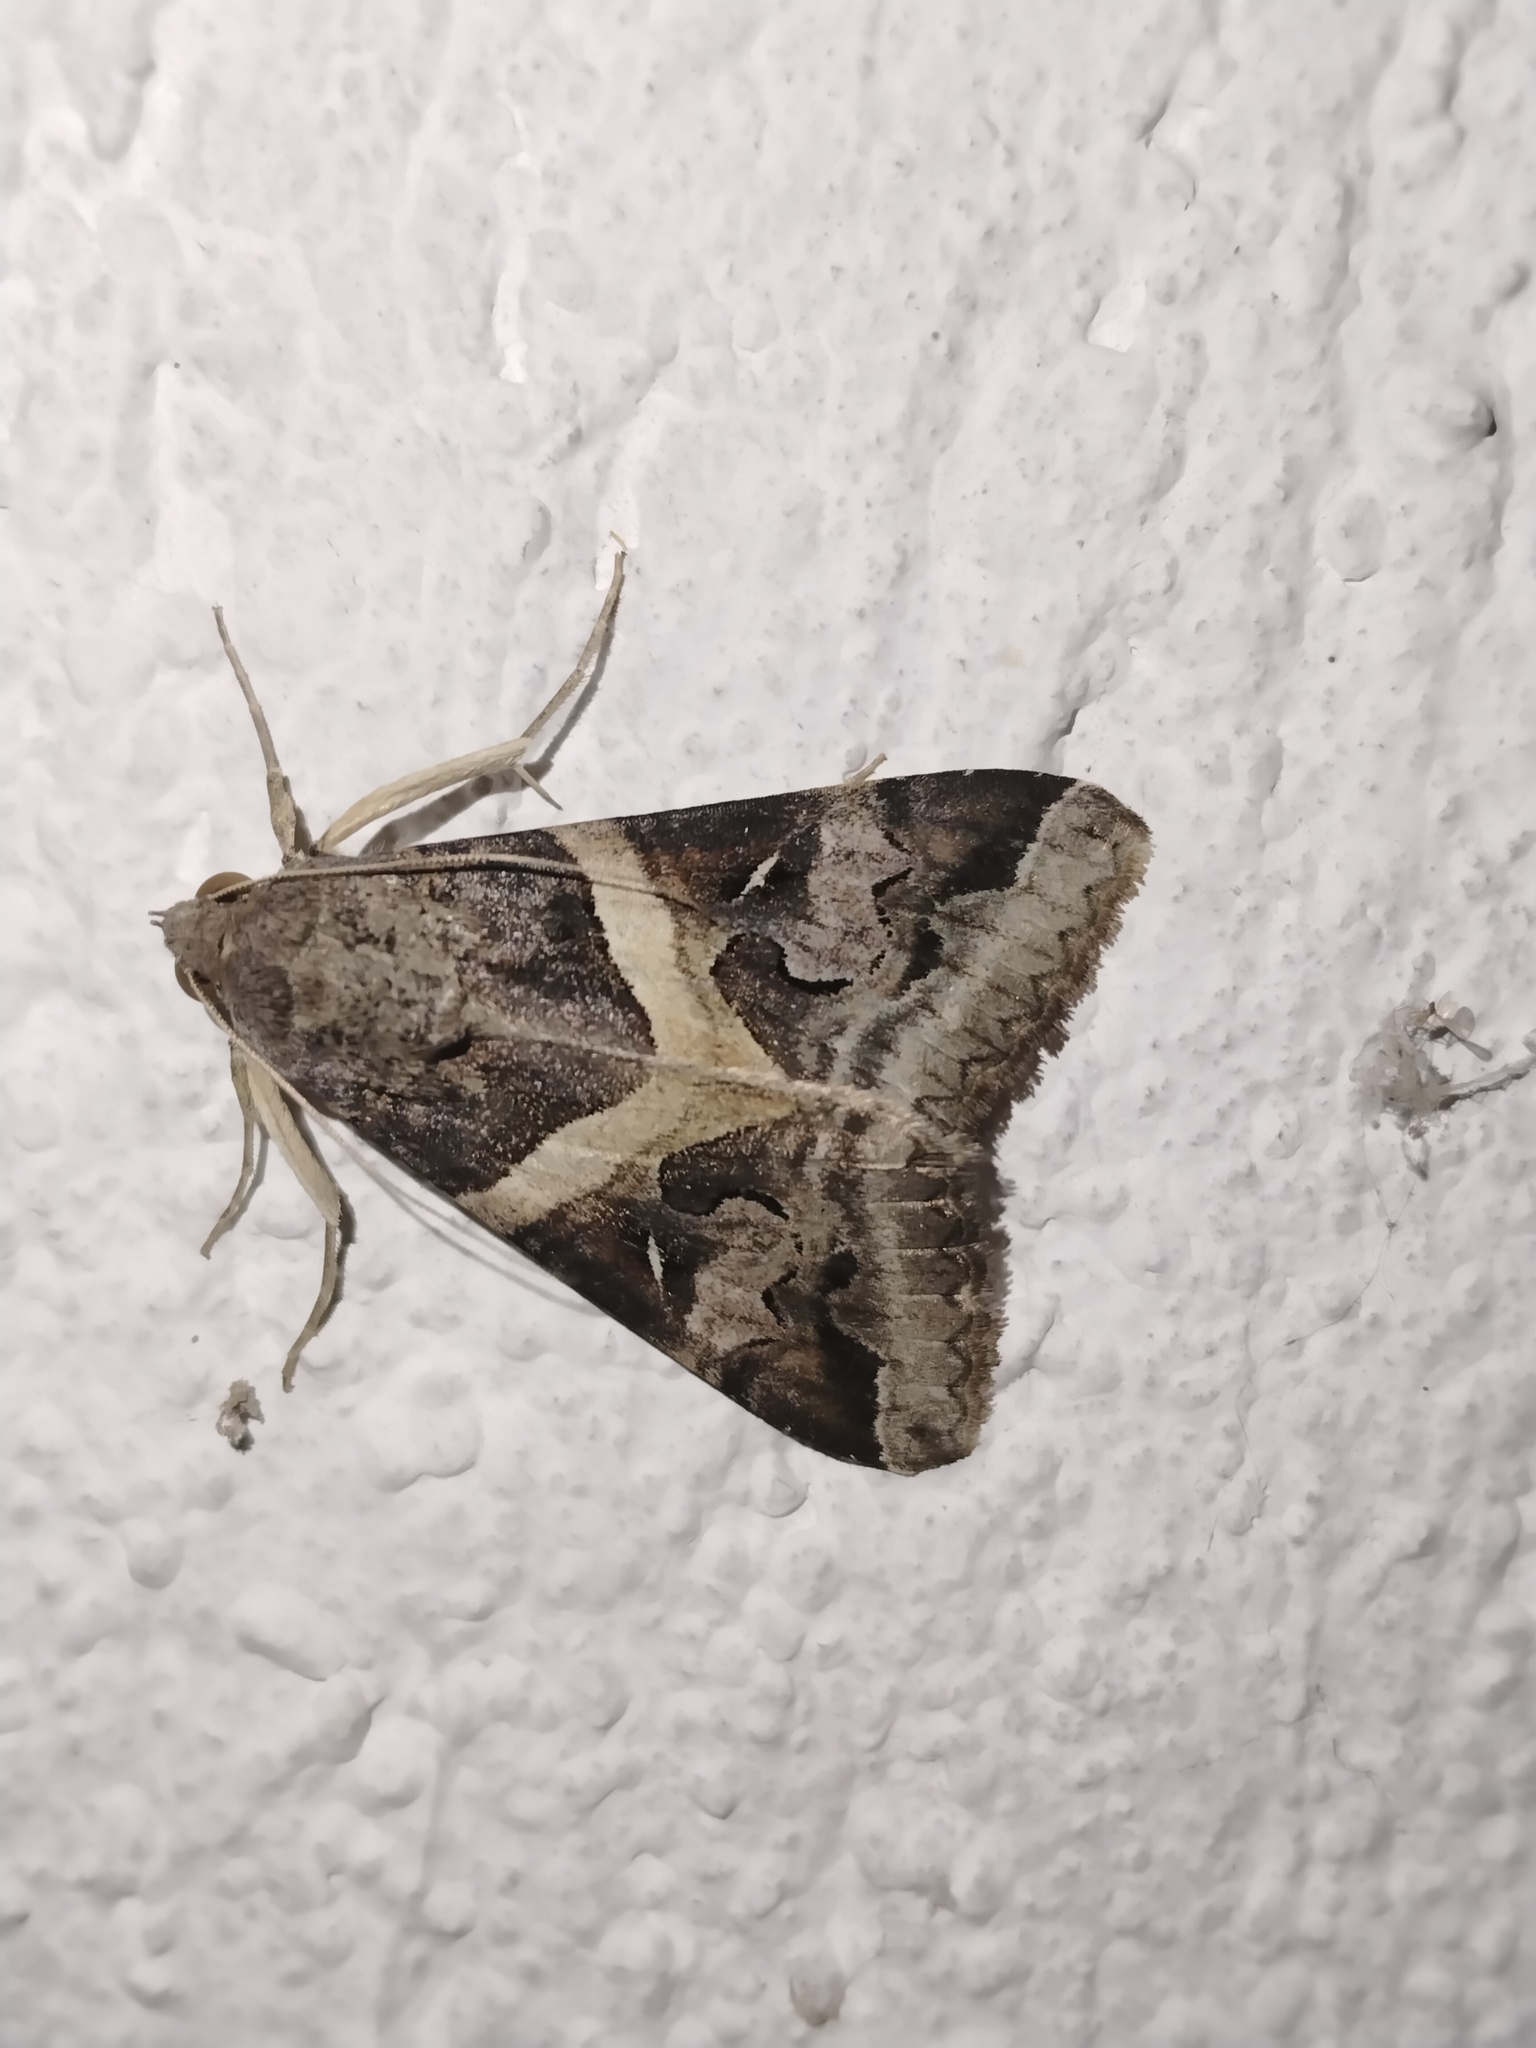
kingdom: Animalia
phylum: Arthropoda
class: Insecta
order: Lepidoptera
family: Erebidae
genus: Melipotis
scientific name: Melipotis indomita
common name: Moth
